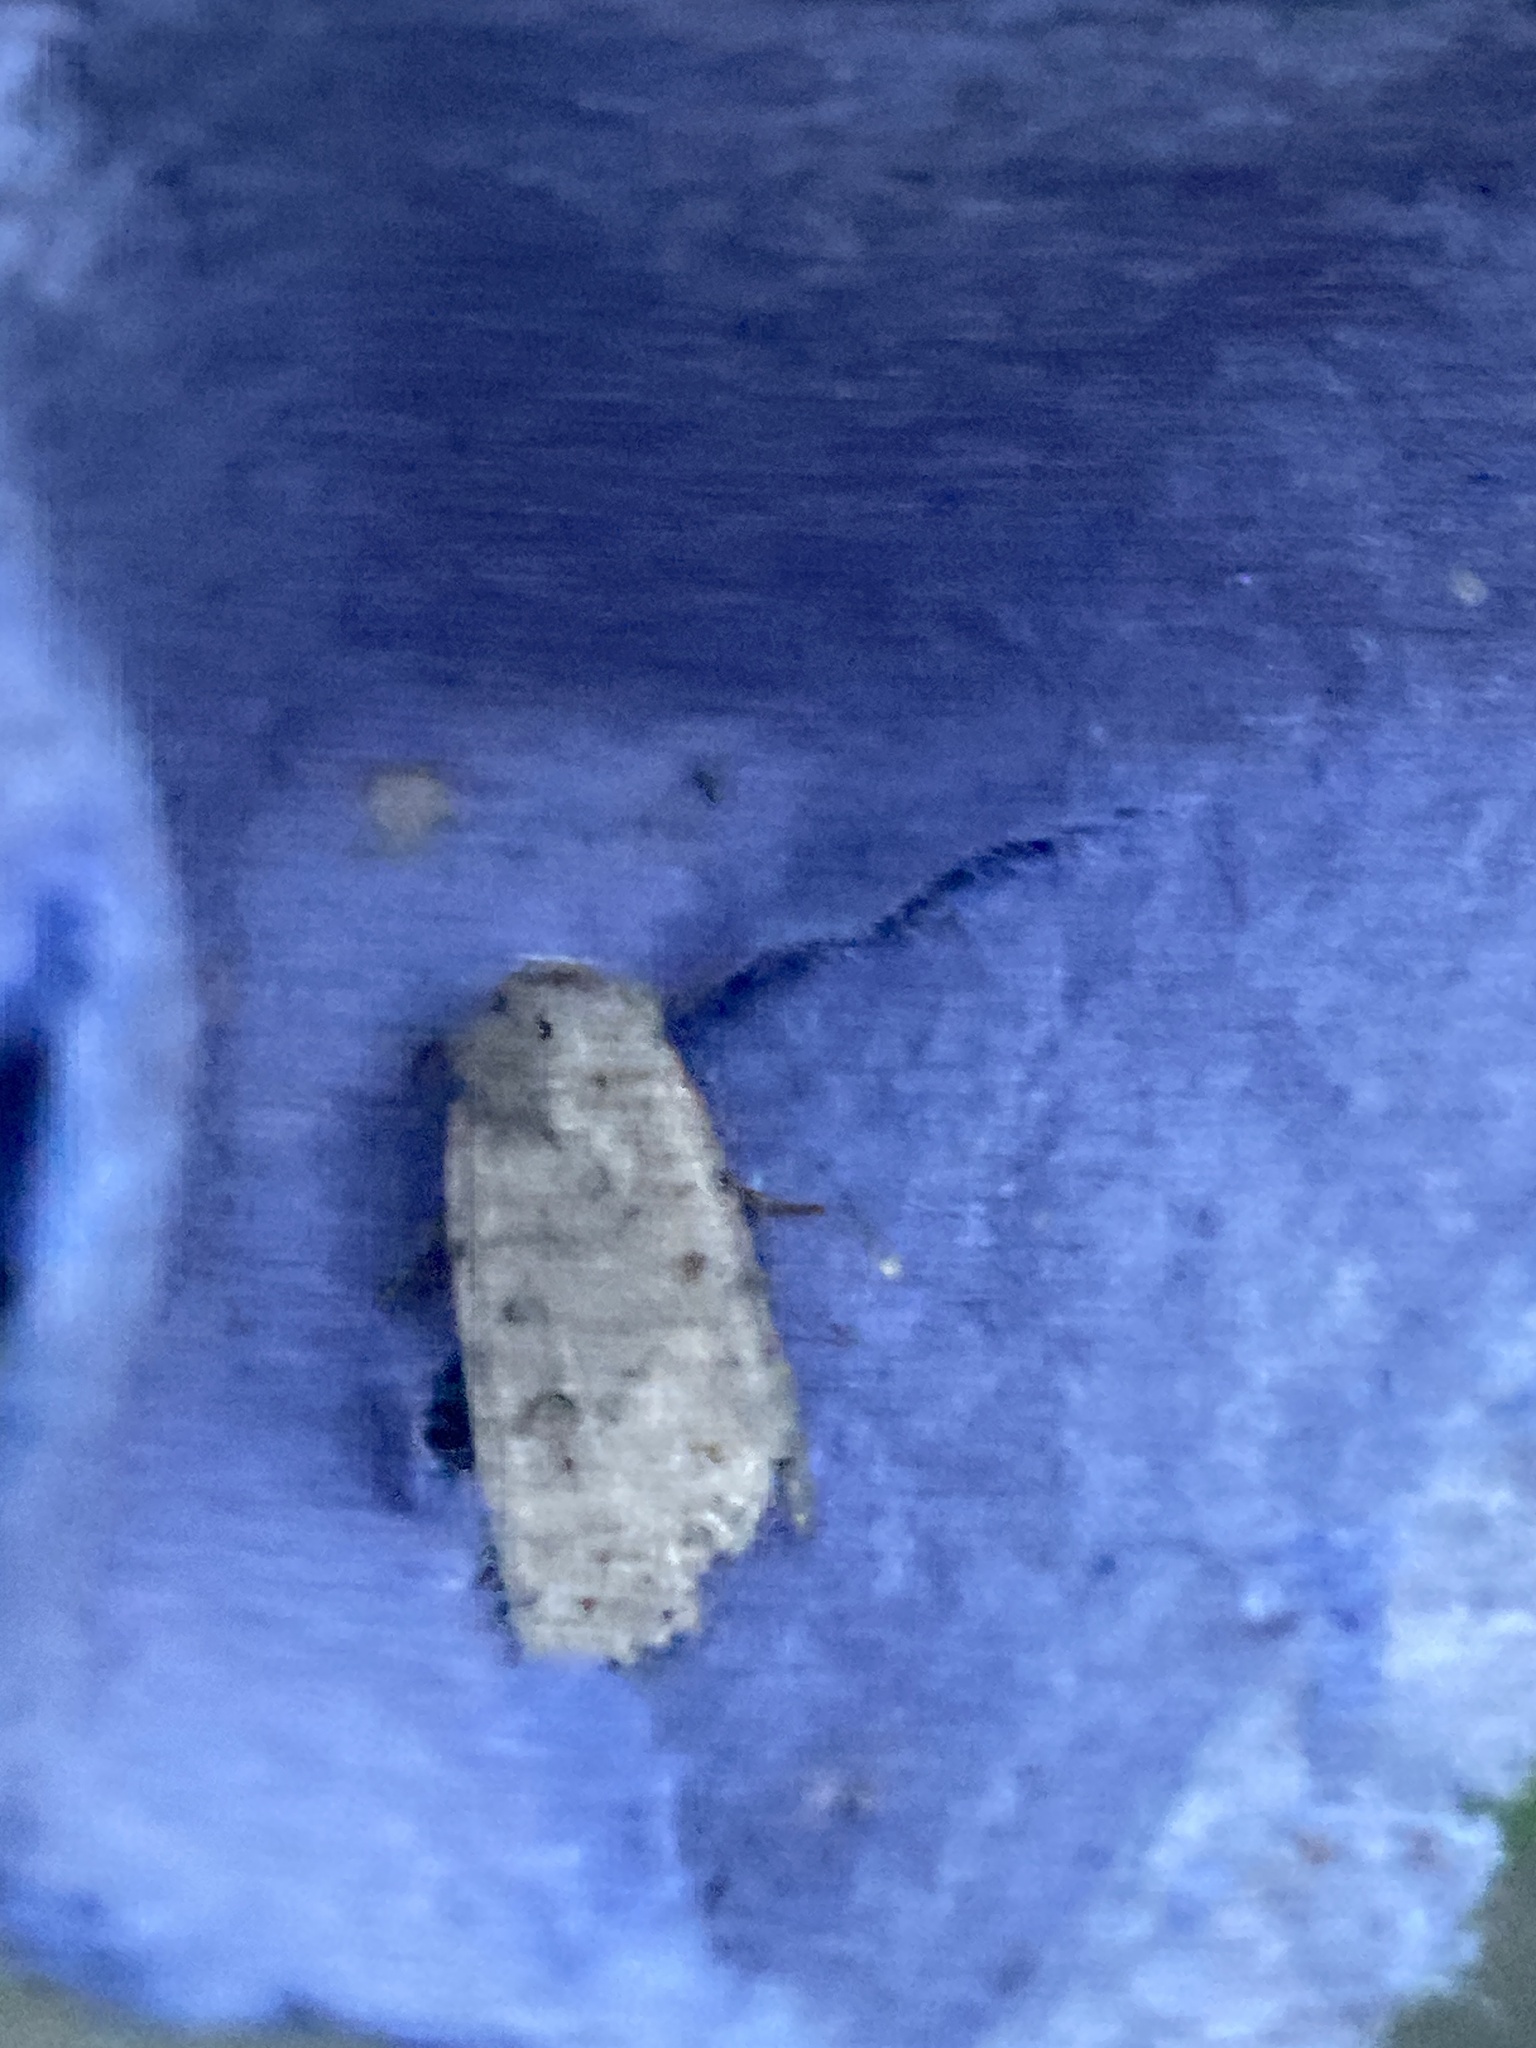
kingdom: Animalia
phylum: Arthropoda
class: Insecta
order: Lepidoptera
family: Noctuidae
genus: Caradrina
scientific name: Caradrina clavipalpis
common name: Pale mottled willow
